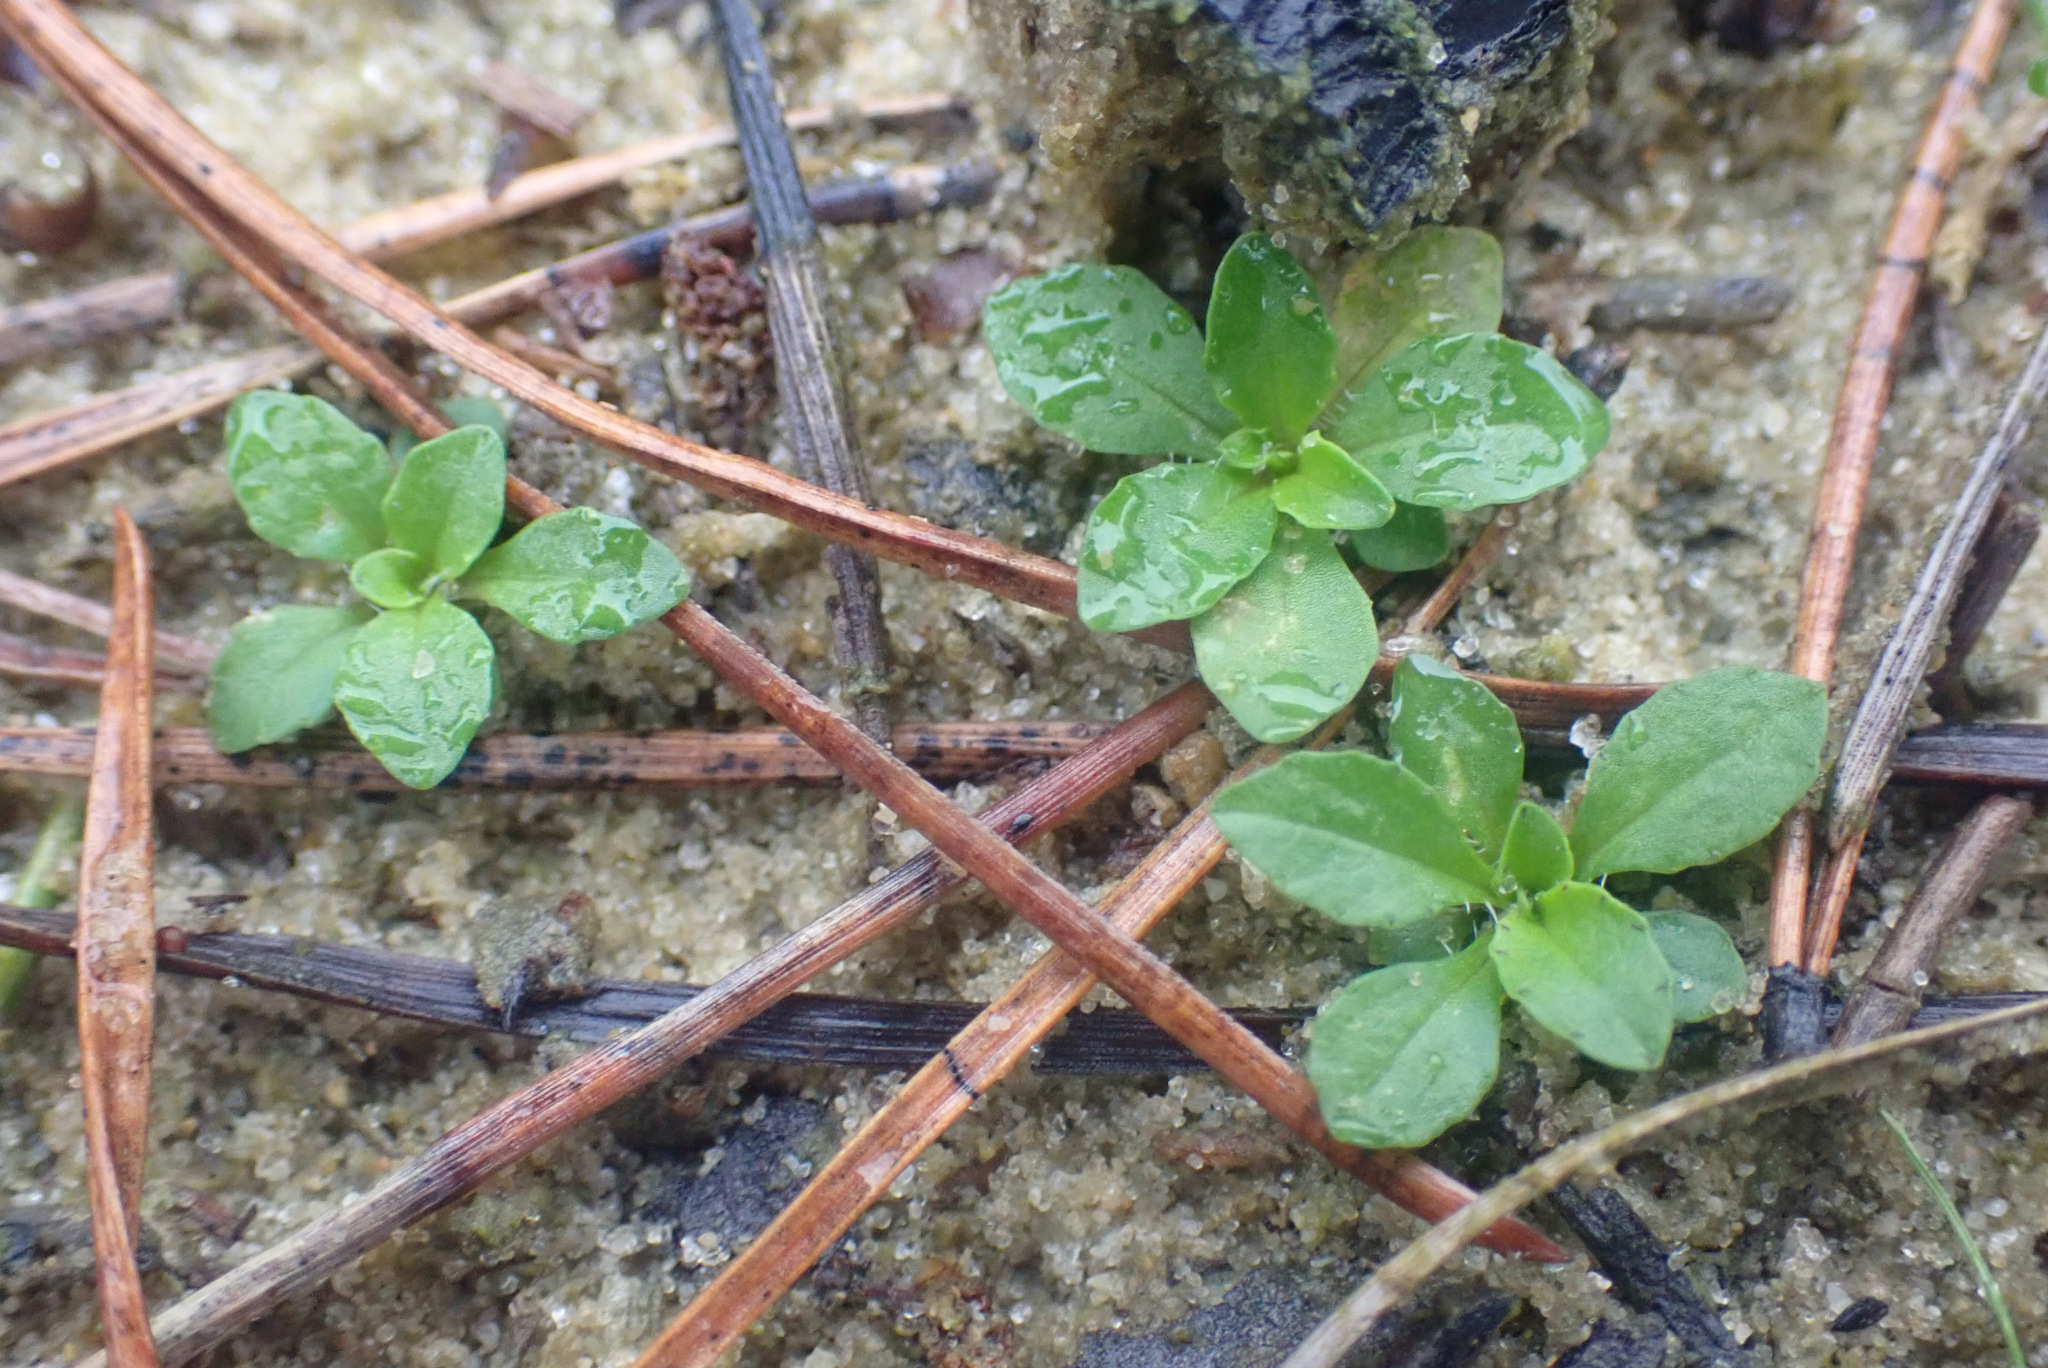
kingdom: Plantae
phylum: Tracheophyta
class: Magnoliopsida
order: Asterales
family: Campanulaceae
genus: Jasione
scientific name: Jasione montana
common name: Sheep's-bit
